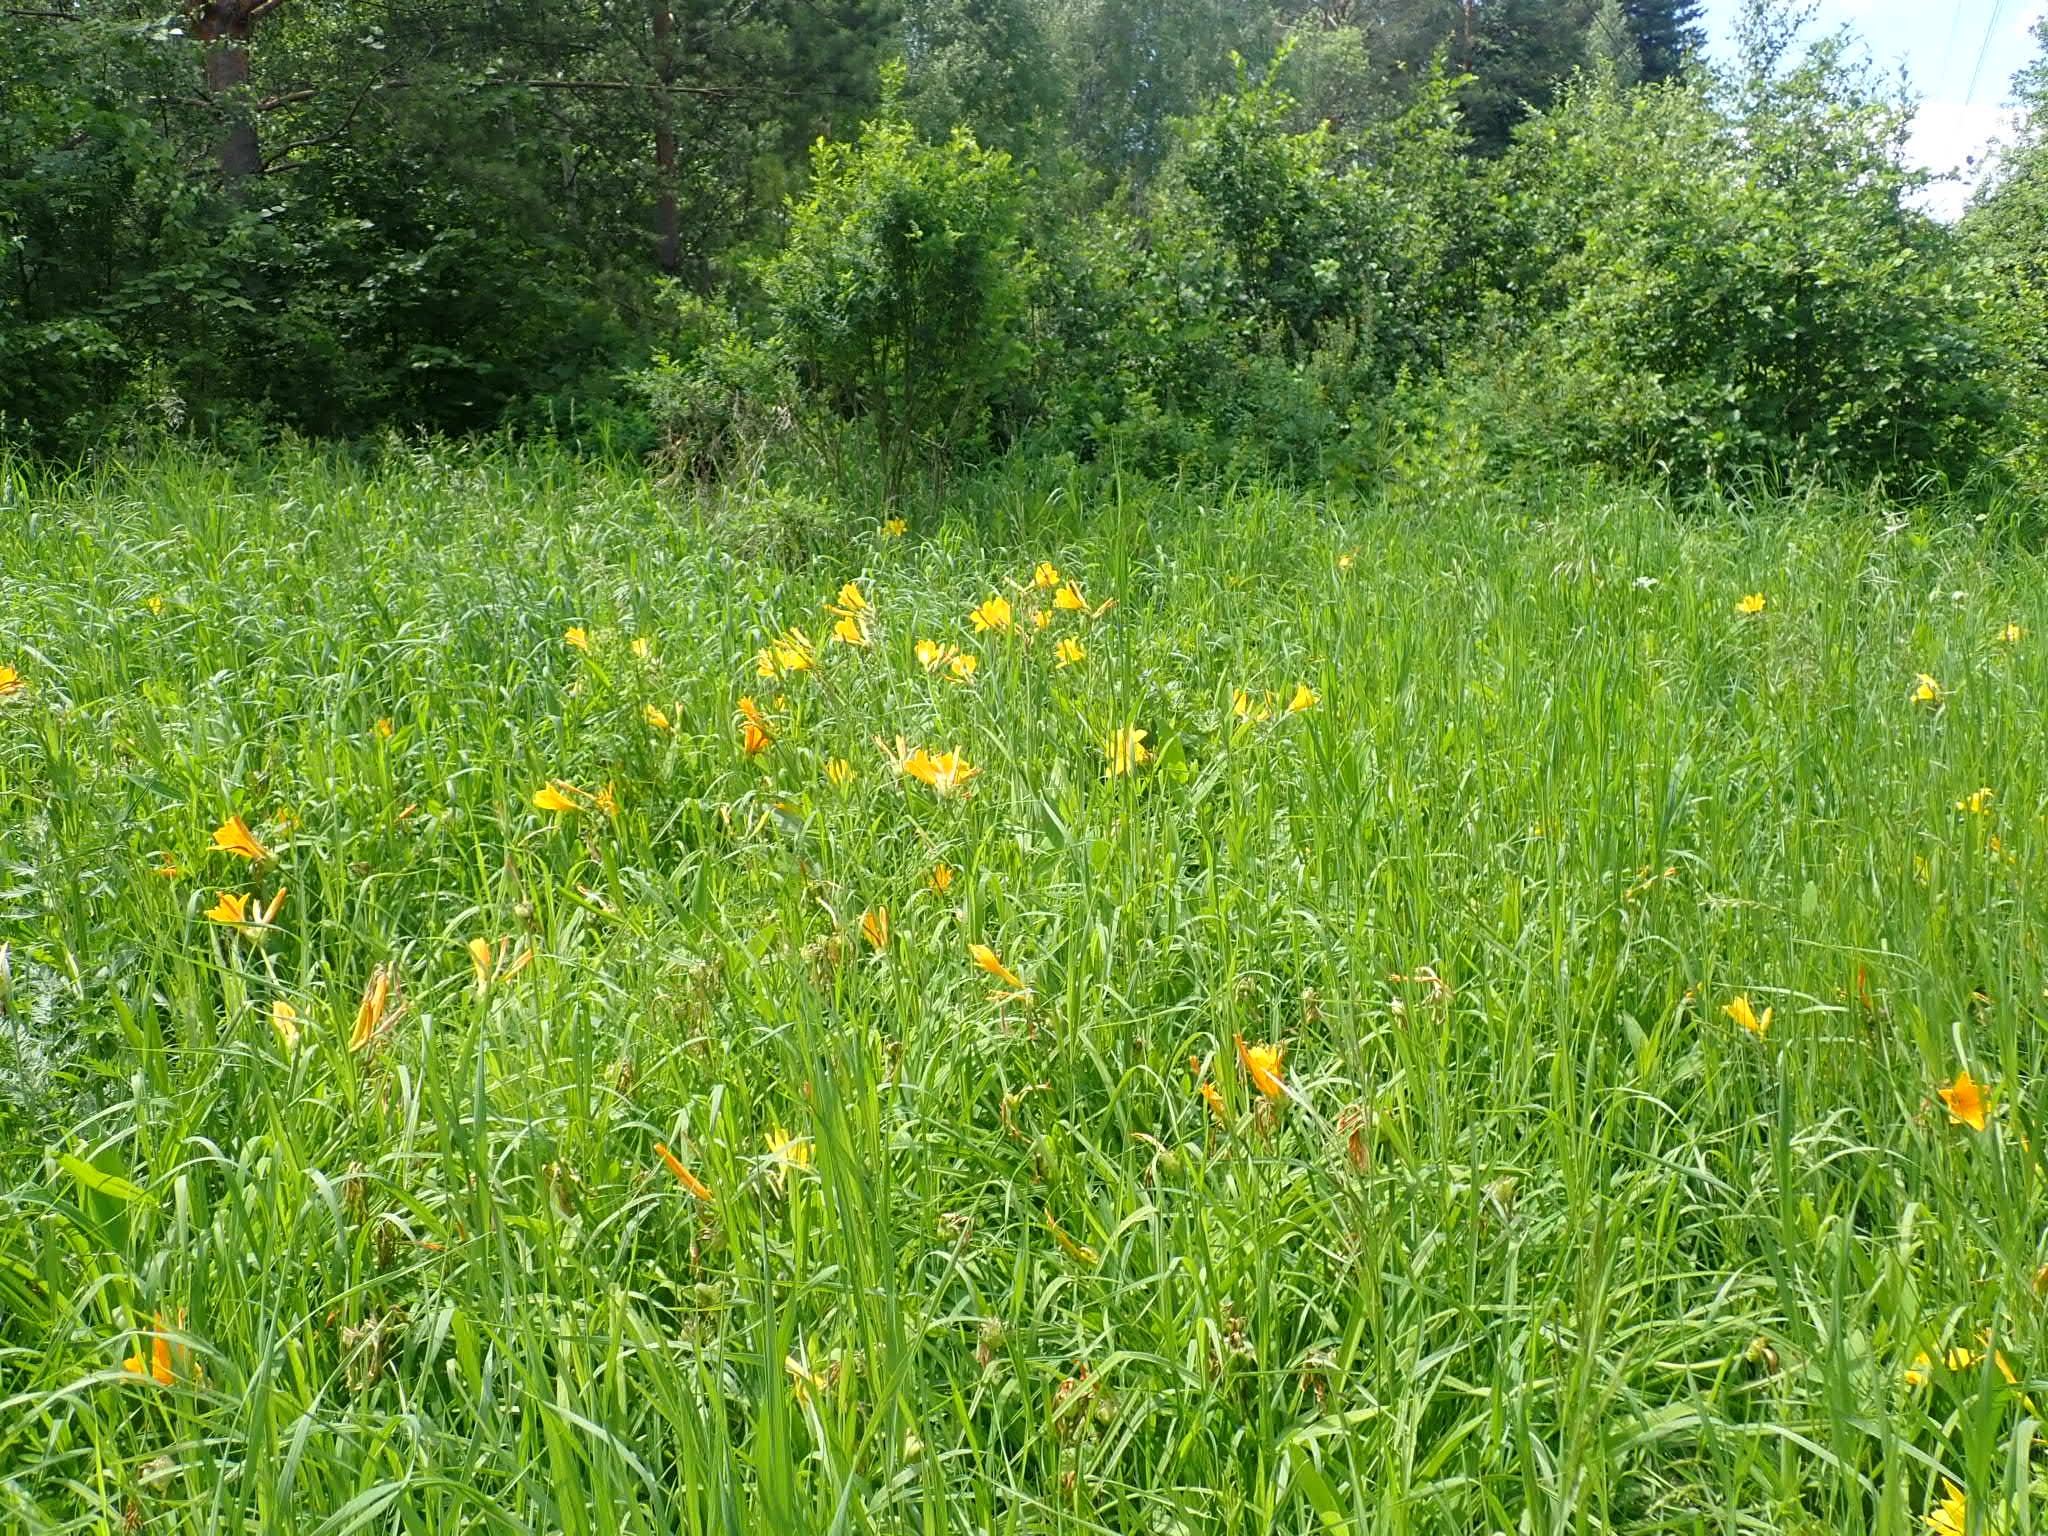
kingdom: Plantae
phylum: Tracheophyta
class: Liliopsida
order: Asparagales
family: Asphodelaceae
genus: Hemerocallis
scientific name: Hemerocallis minor
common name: Small daylily
